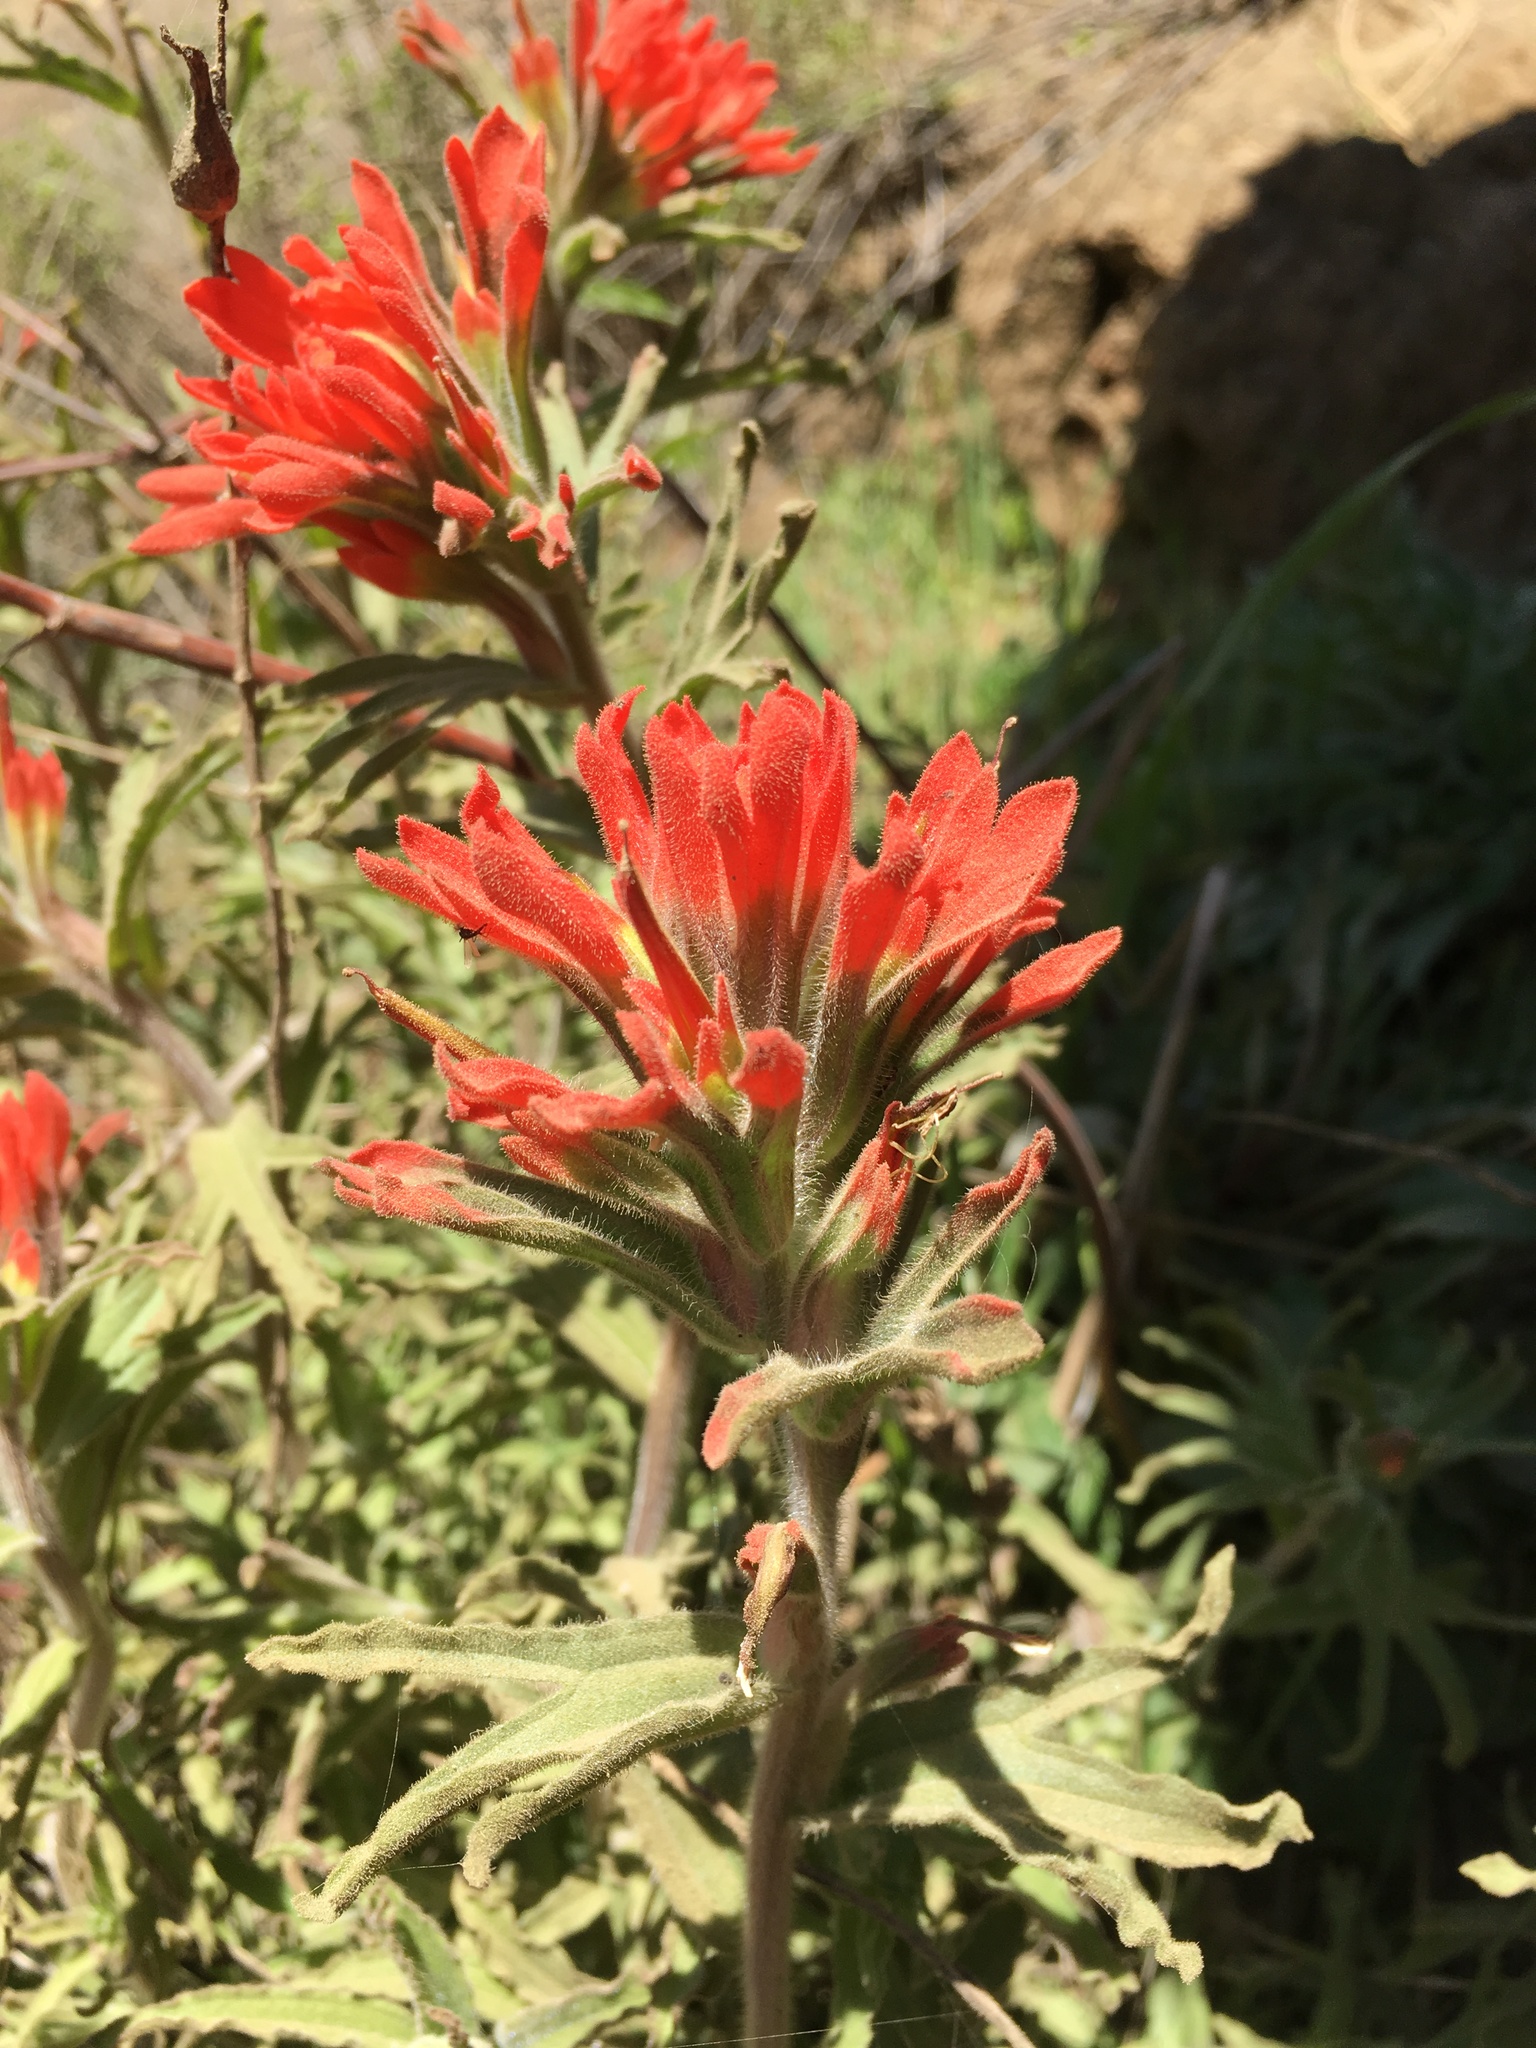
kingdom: Plantae
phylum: Tracheophyta
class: Magnoliopsida
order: Lamiales
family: Orobanchaceae
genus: Castilleja
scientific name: Castilleja applegatei
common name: Wavy-leaf paintbrush
